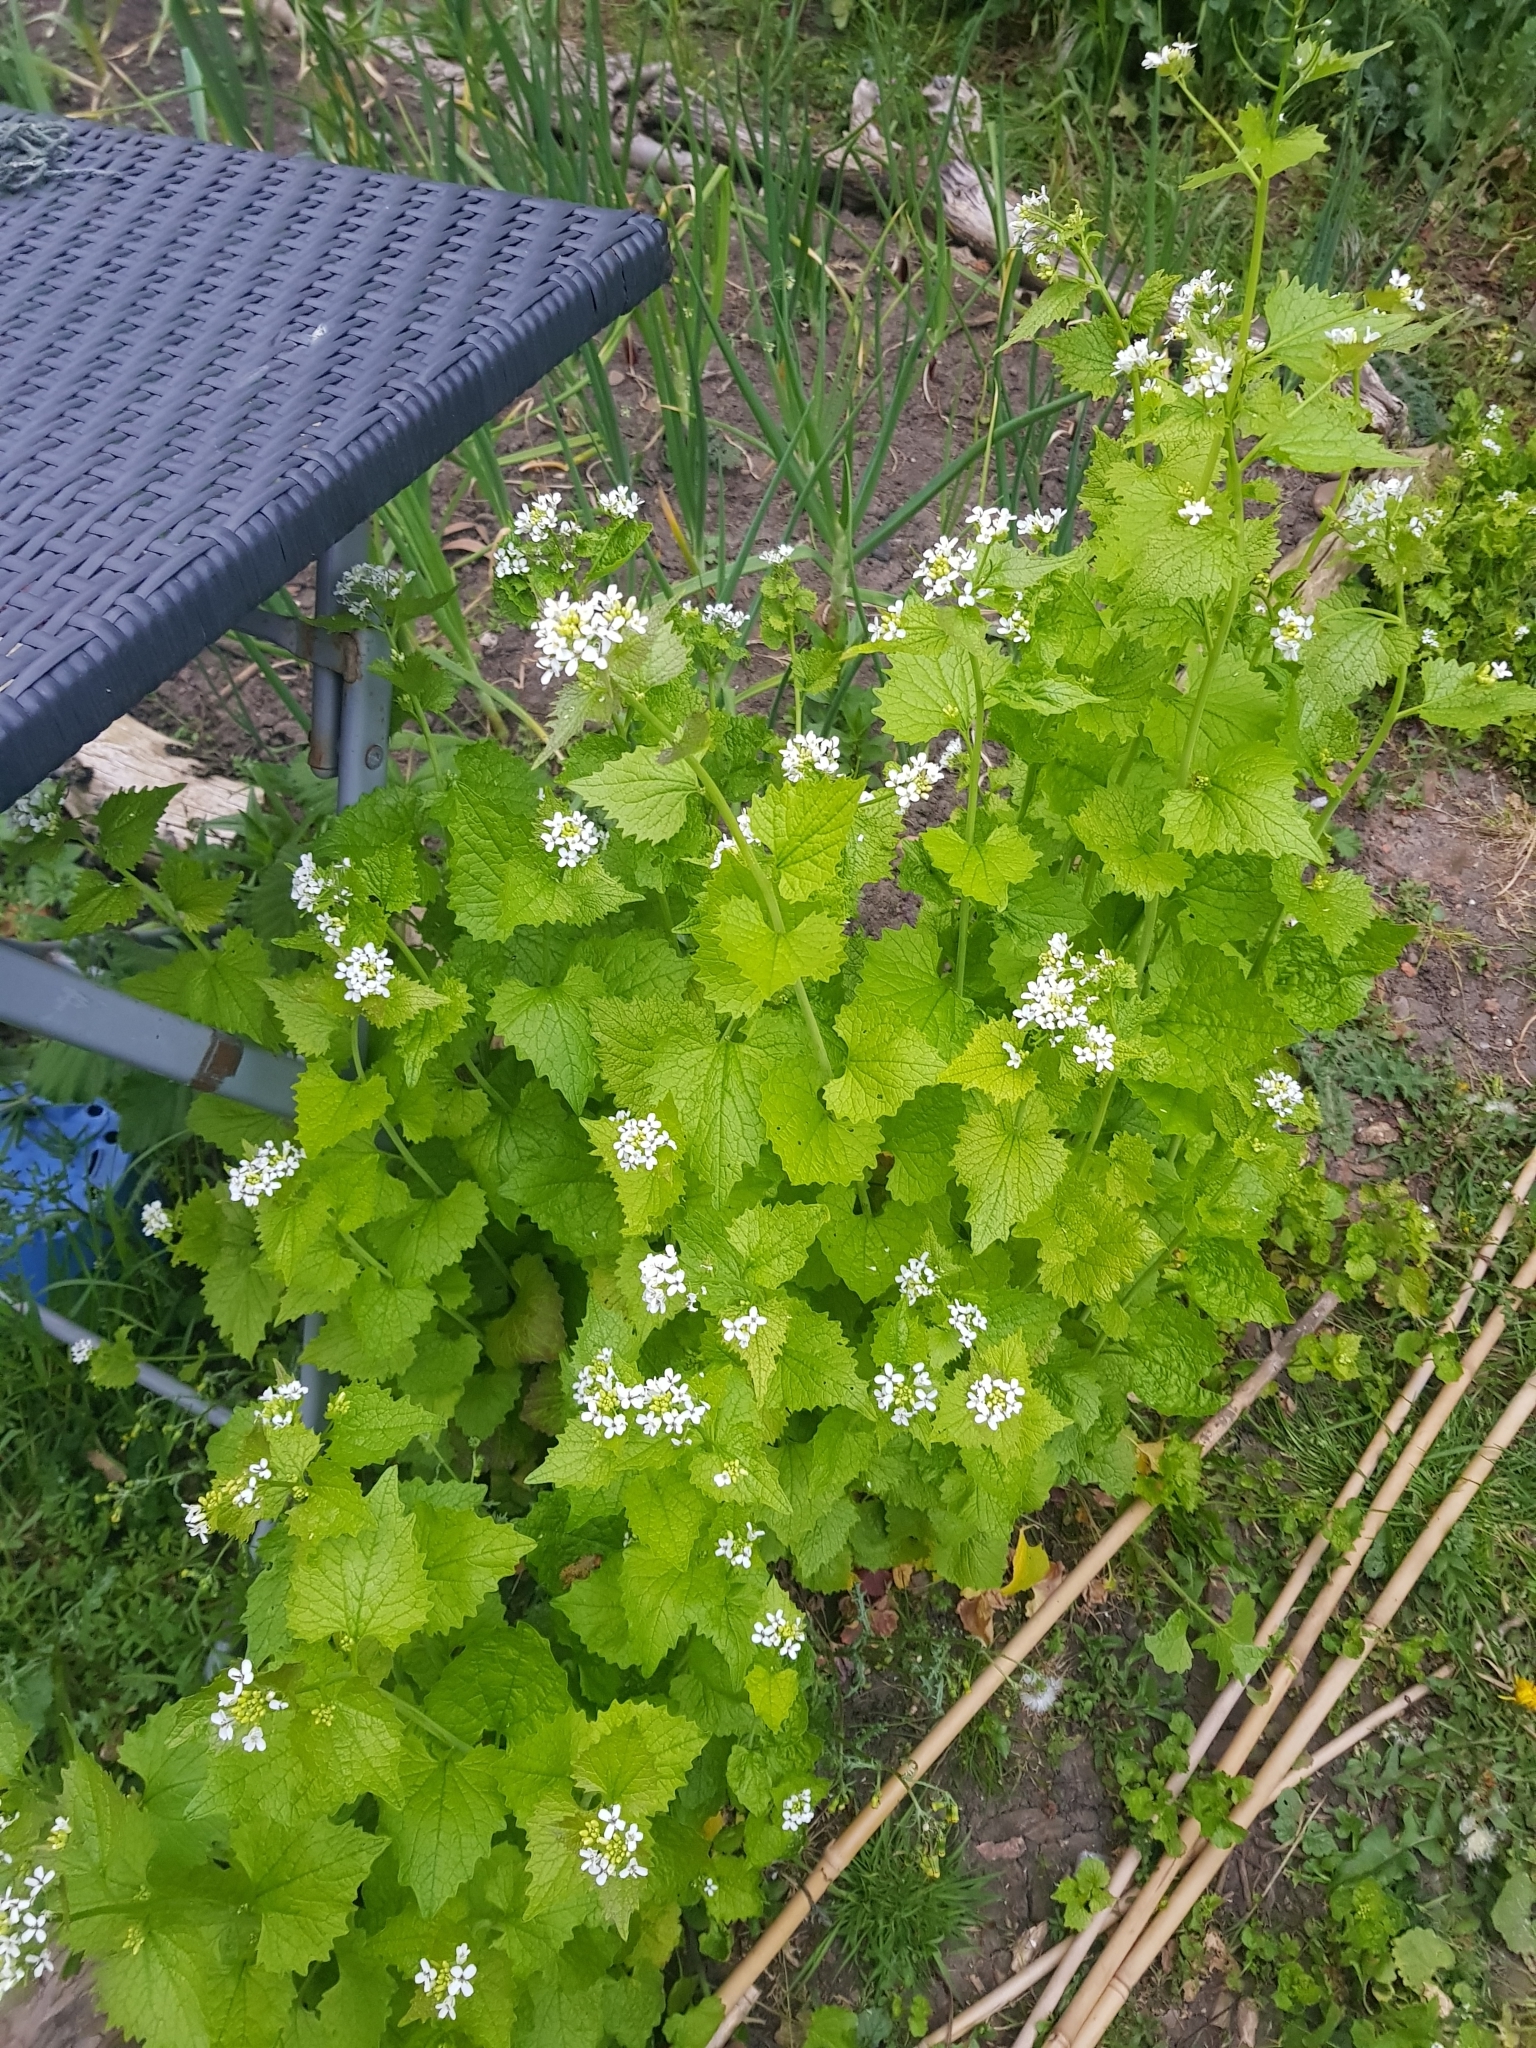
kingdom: Plantae
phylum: Tracheophyta
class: Magnoliopsida
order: Brassicales
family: Brassicaceae
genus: Alliaria
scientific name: Alliaria petiolata
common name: Garlic mustard
